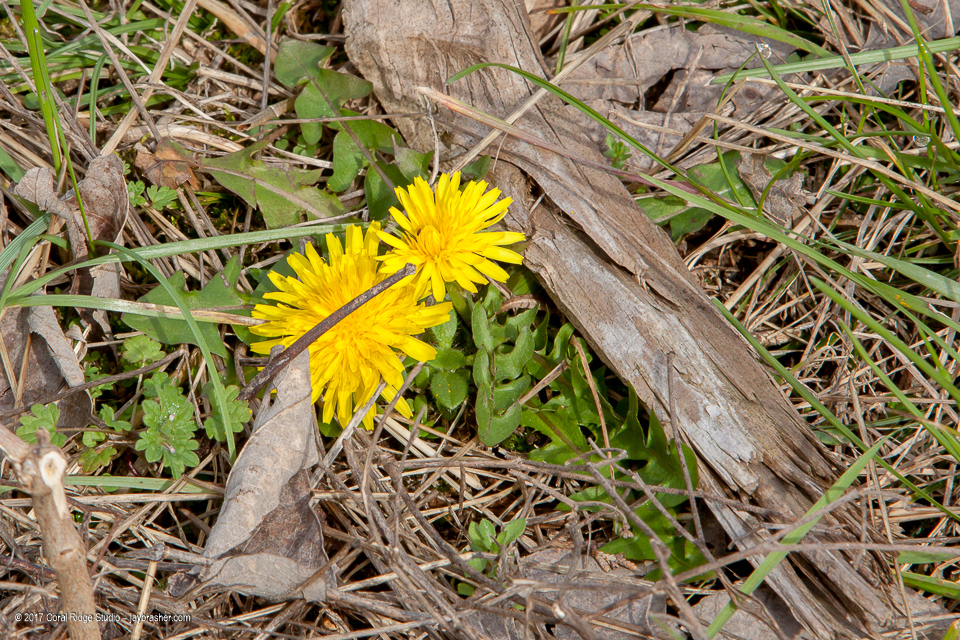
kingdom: Plantae
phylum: Tracheophyta
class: Magnoliopsida
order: Asterales
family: Asteraceae
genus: Taraxacum
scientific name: Taraxacum officinale
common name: Common dandelion
